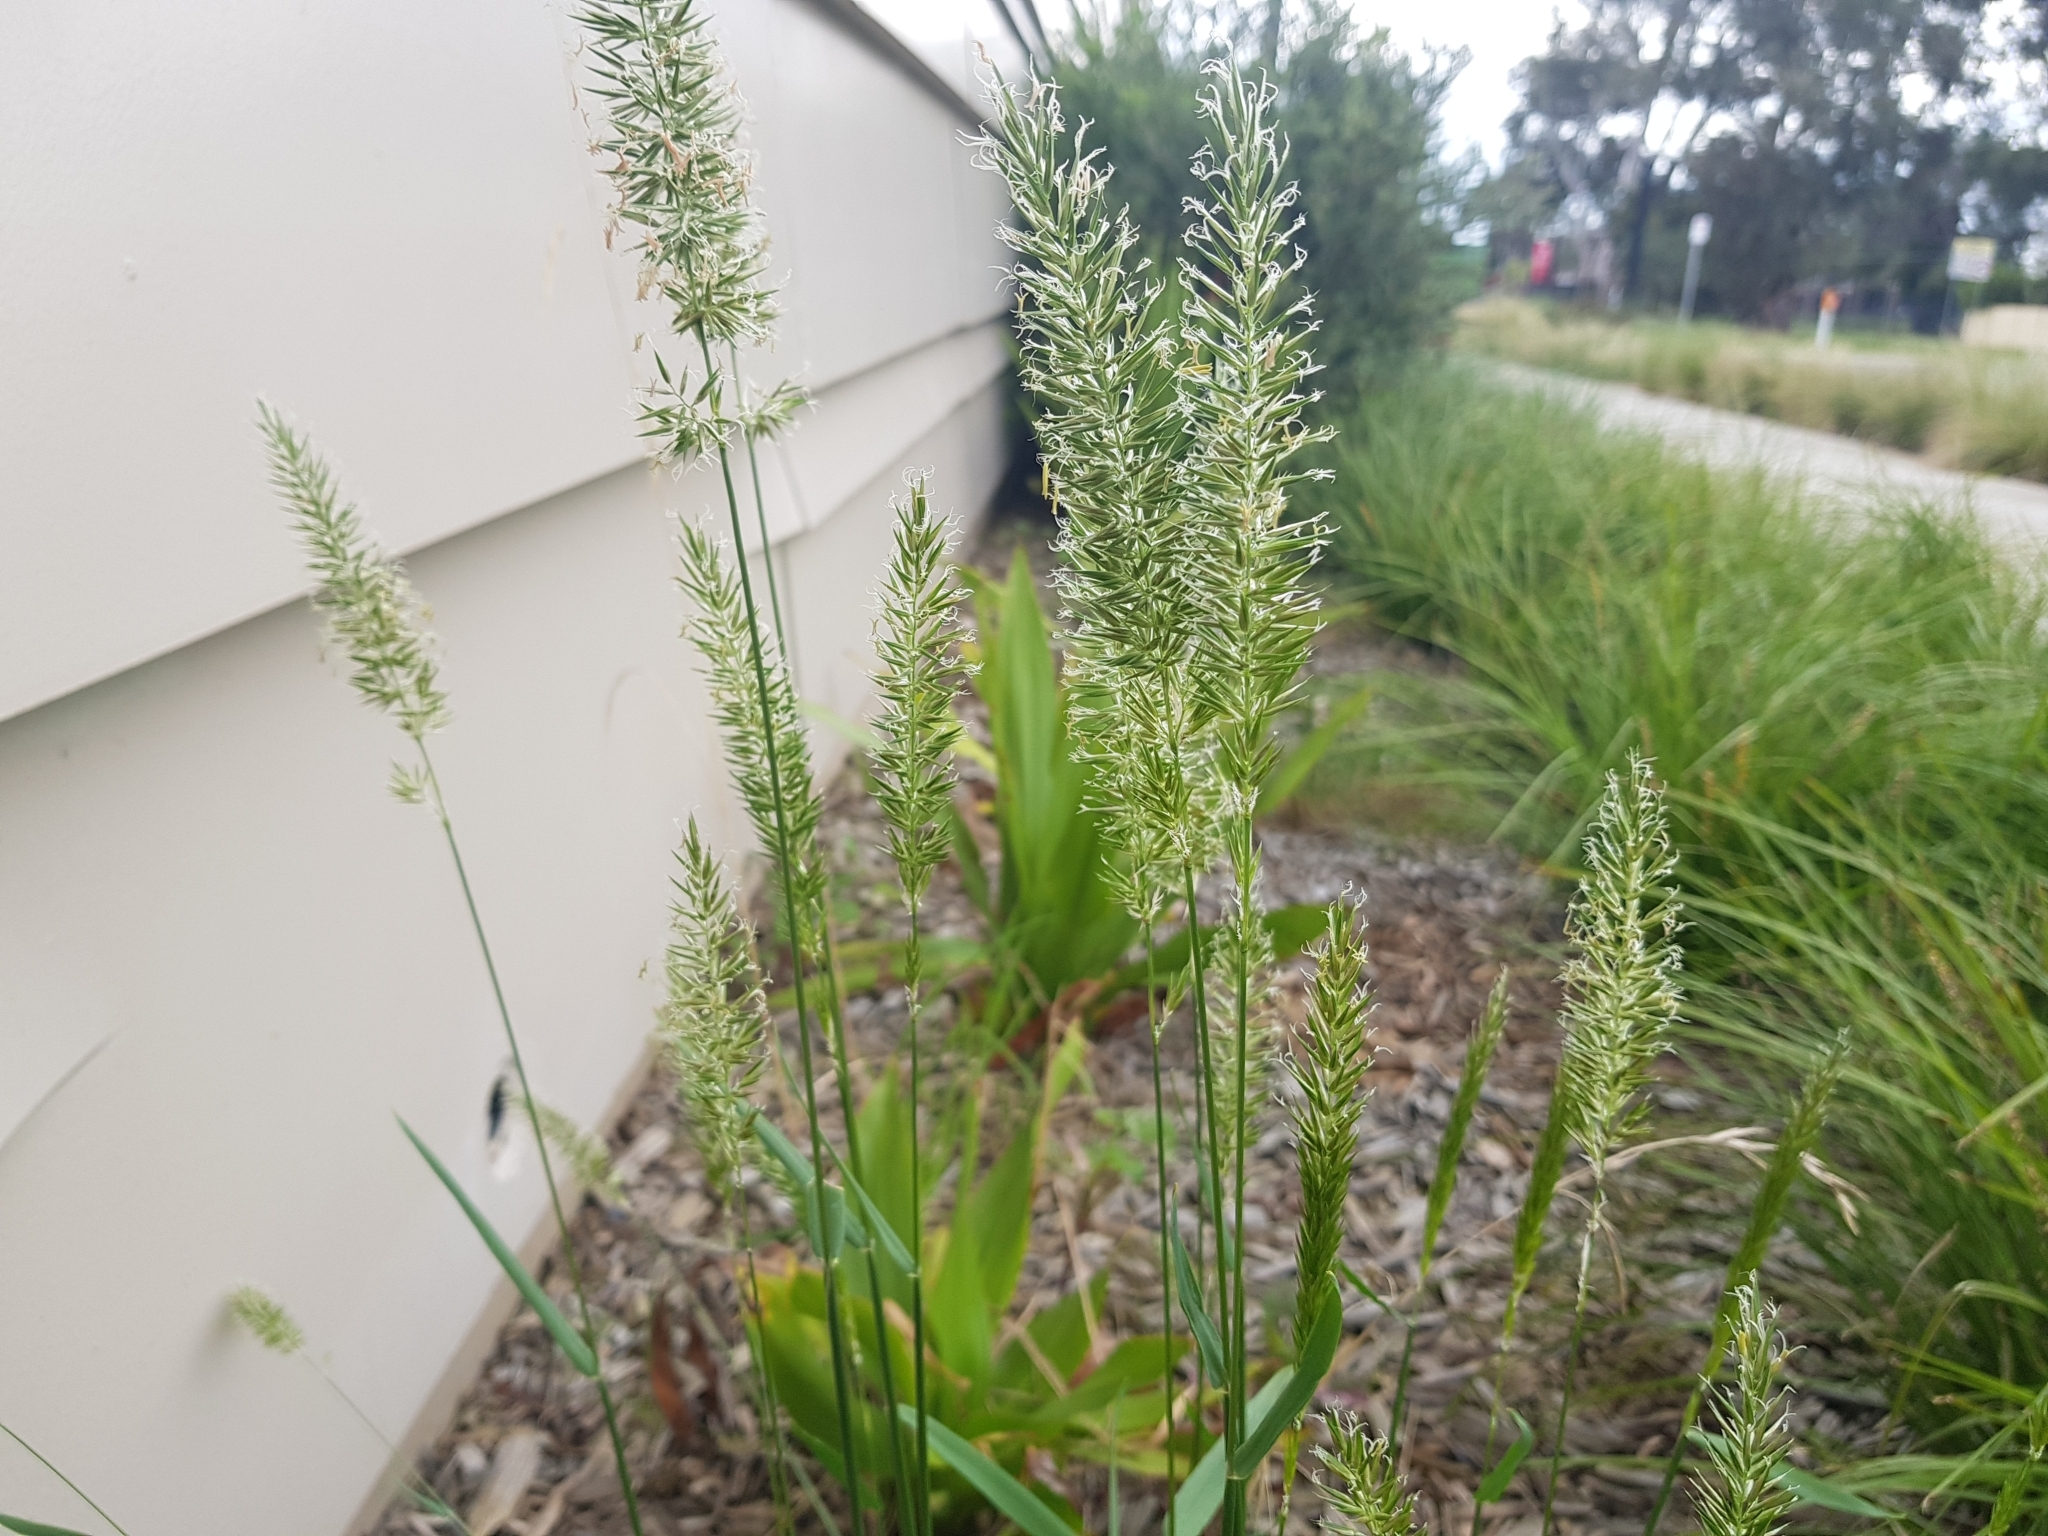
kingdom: Plantae
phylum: Tracheophyta
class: Liliopsida
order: Poales
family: Poaceae
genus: Anthoxanthum
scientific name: Anthoxanthum odoratum
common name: Sweet vernalgrass
